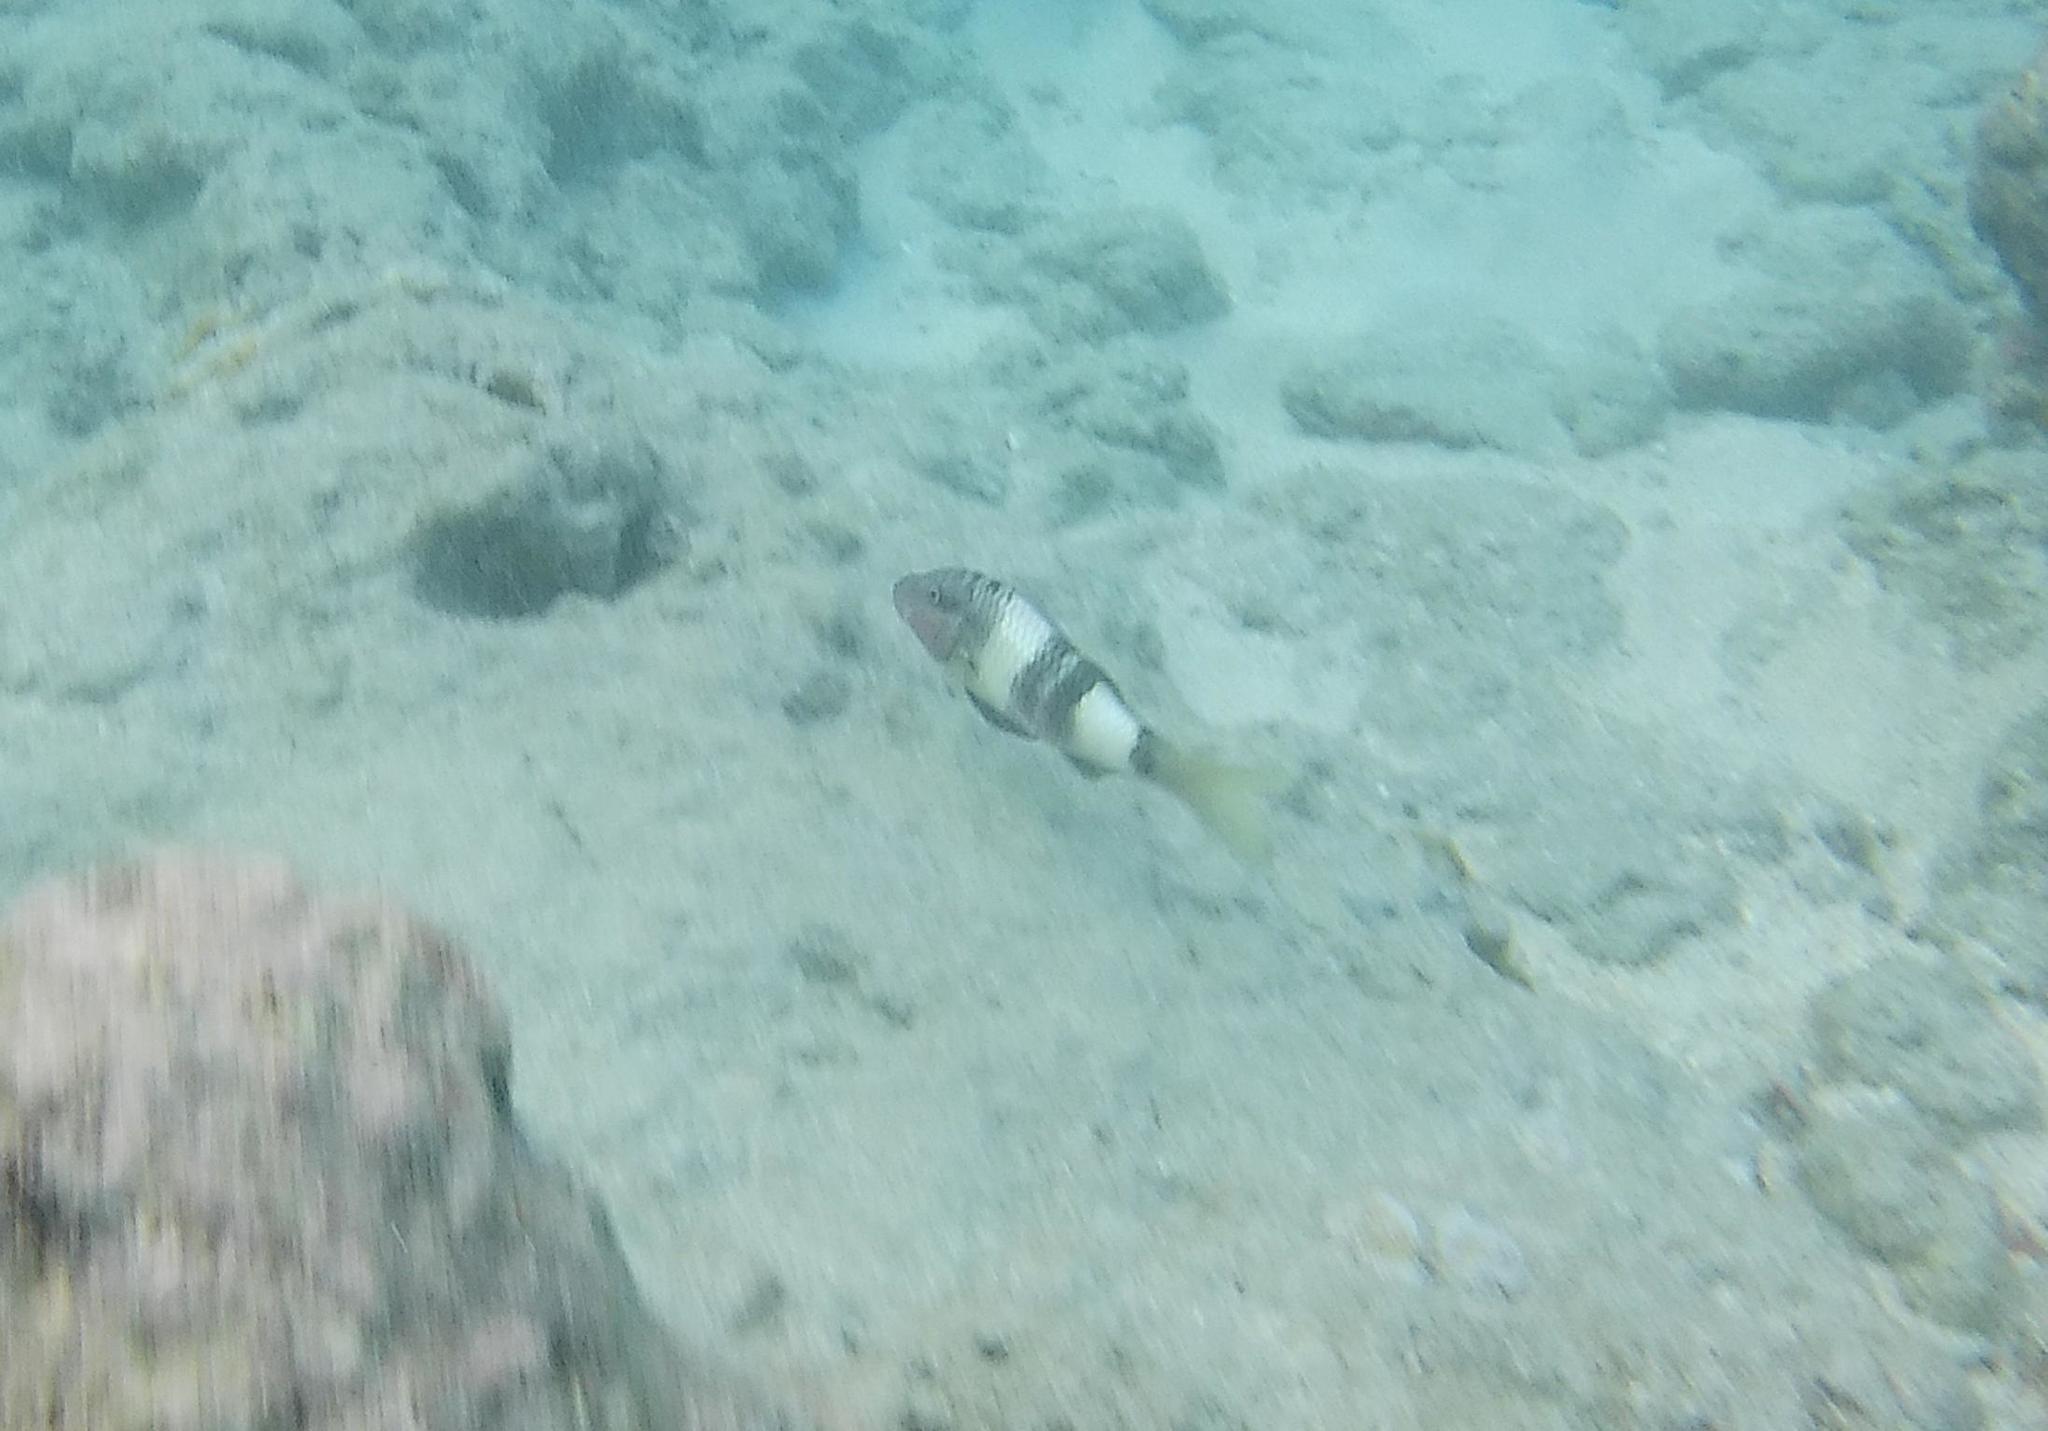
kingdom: Animalia
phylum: Chordata
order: Perciformes
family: Mullidae
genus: Parupeneus
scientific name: Parupeneus multifasciatus
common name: Manybar goatfish
